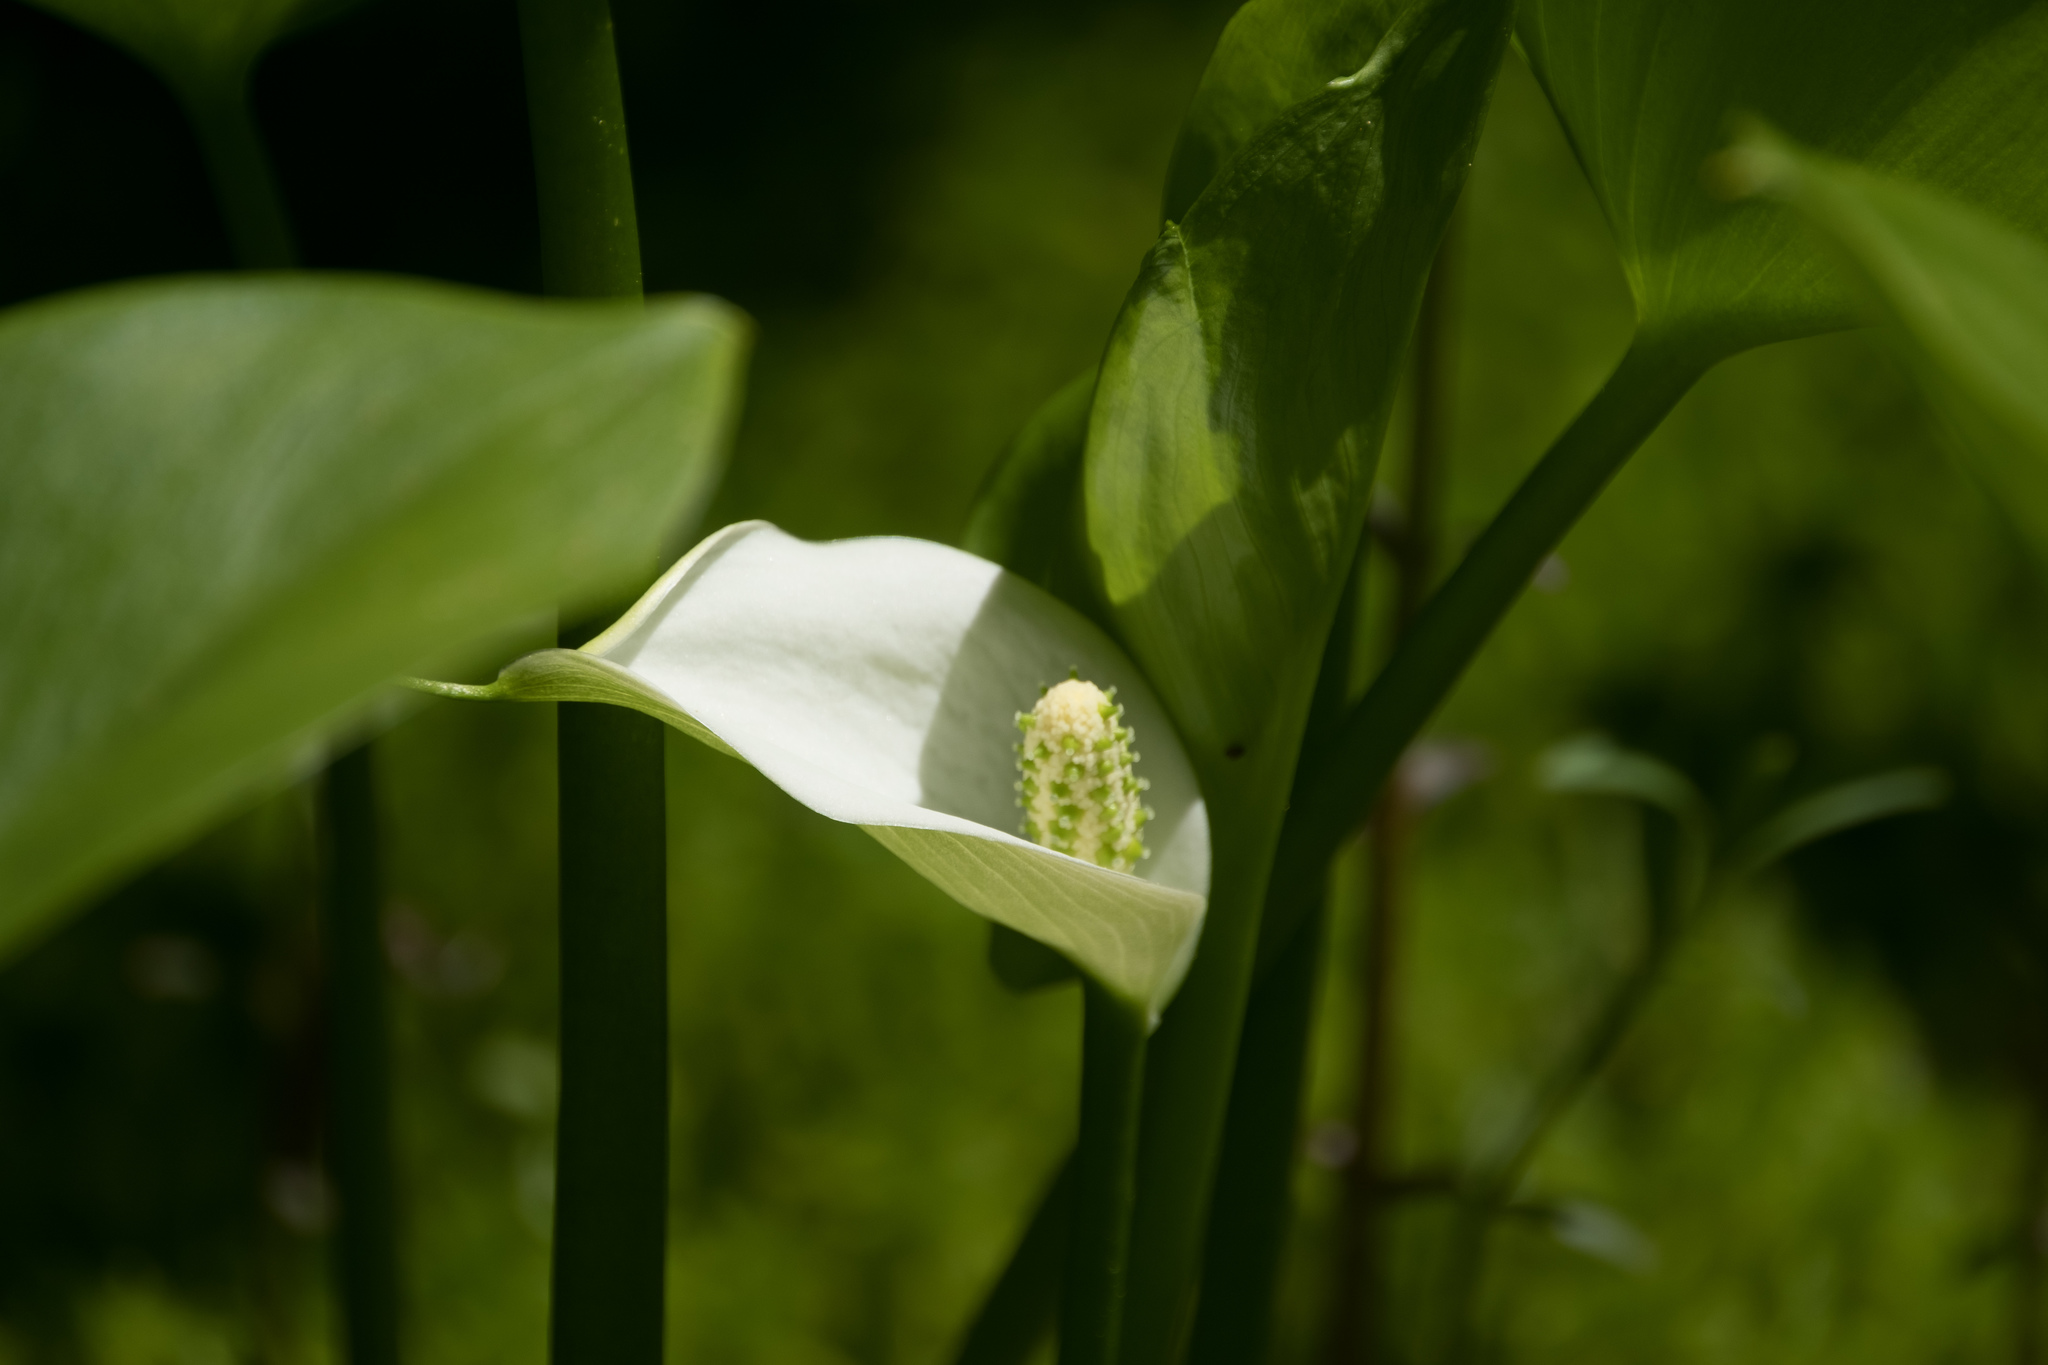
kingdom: Plantae
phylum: Tracheophyta
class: Liliopsida
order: Alismatales
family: Araceae
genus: Calla
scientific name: Calla palustris
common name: Bog arum
